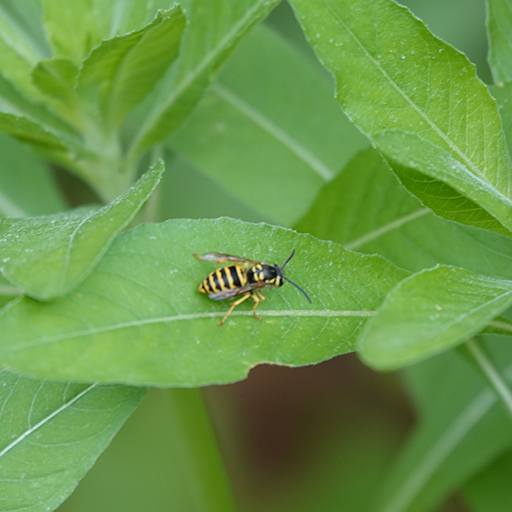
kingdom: Animalia
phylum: Arthropoda
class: Insecta
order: Hymenoptera
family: Vespidae
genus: Vespula
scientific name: Vespula maculifrons
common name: Eastern yellowjacket
